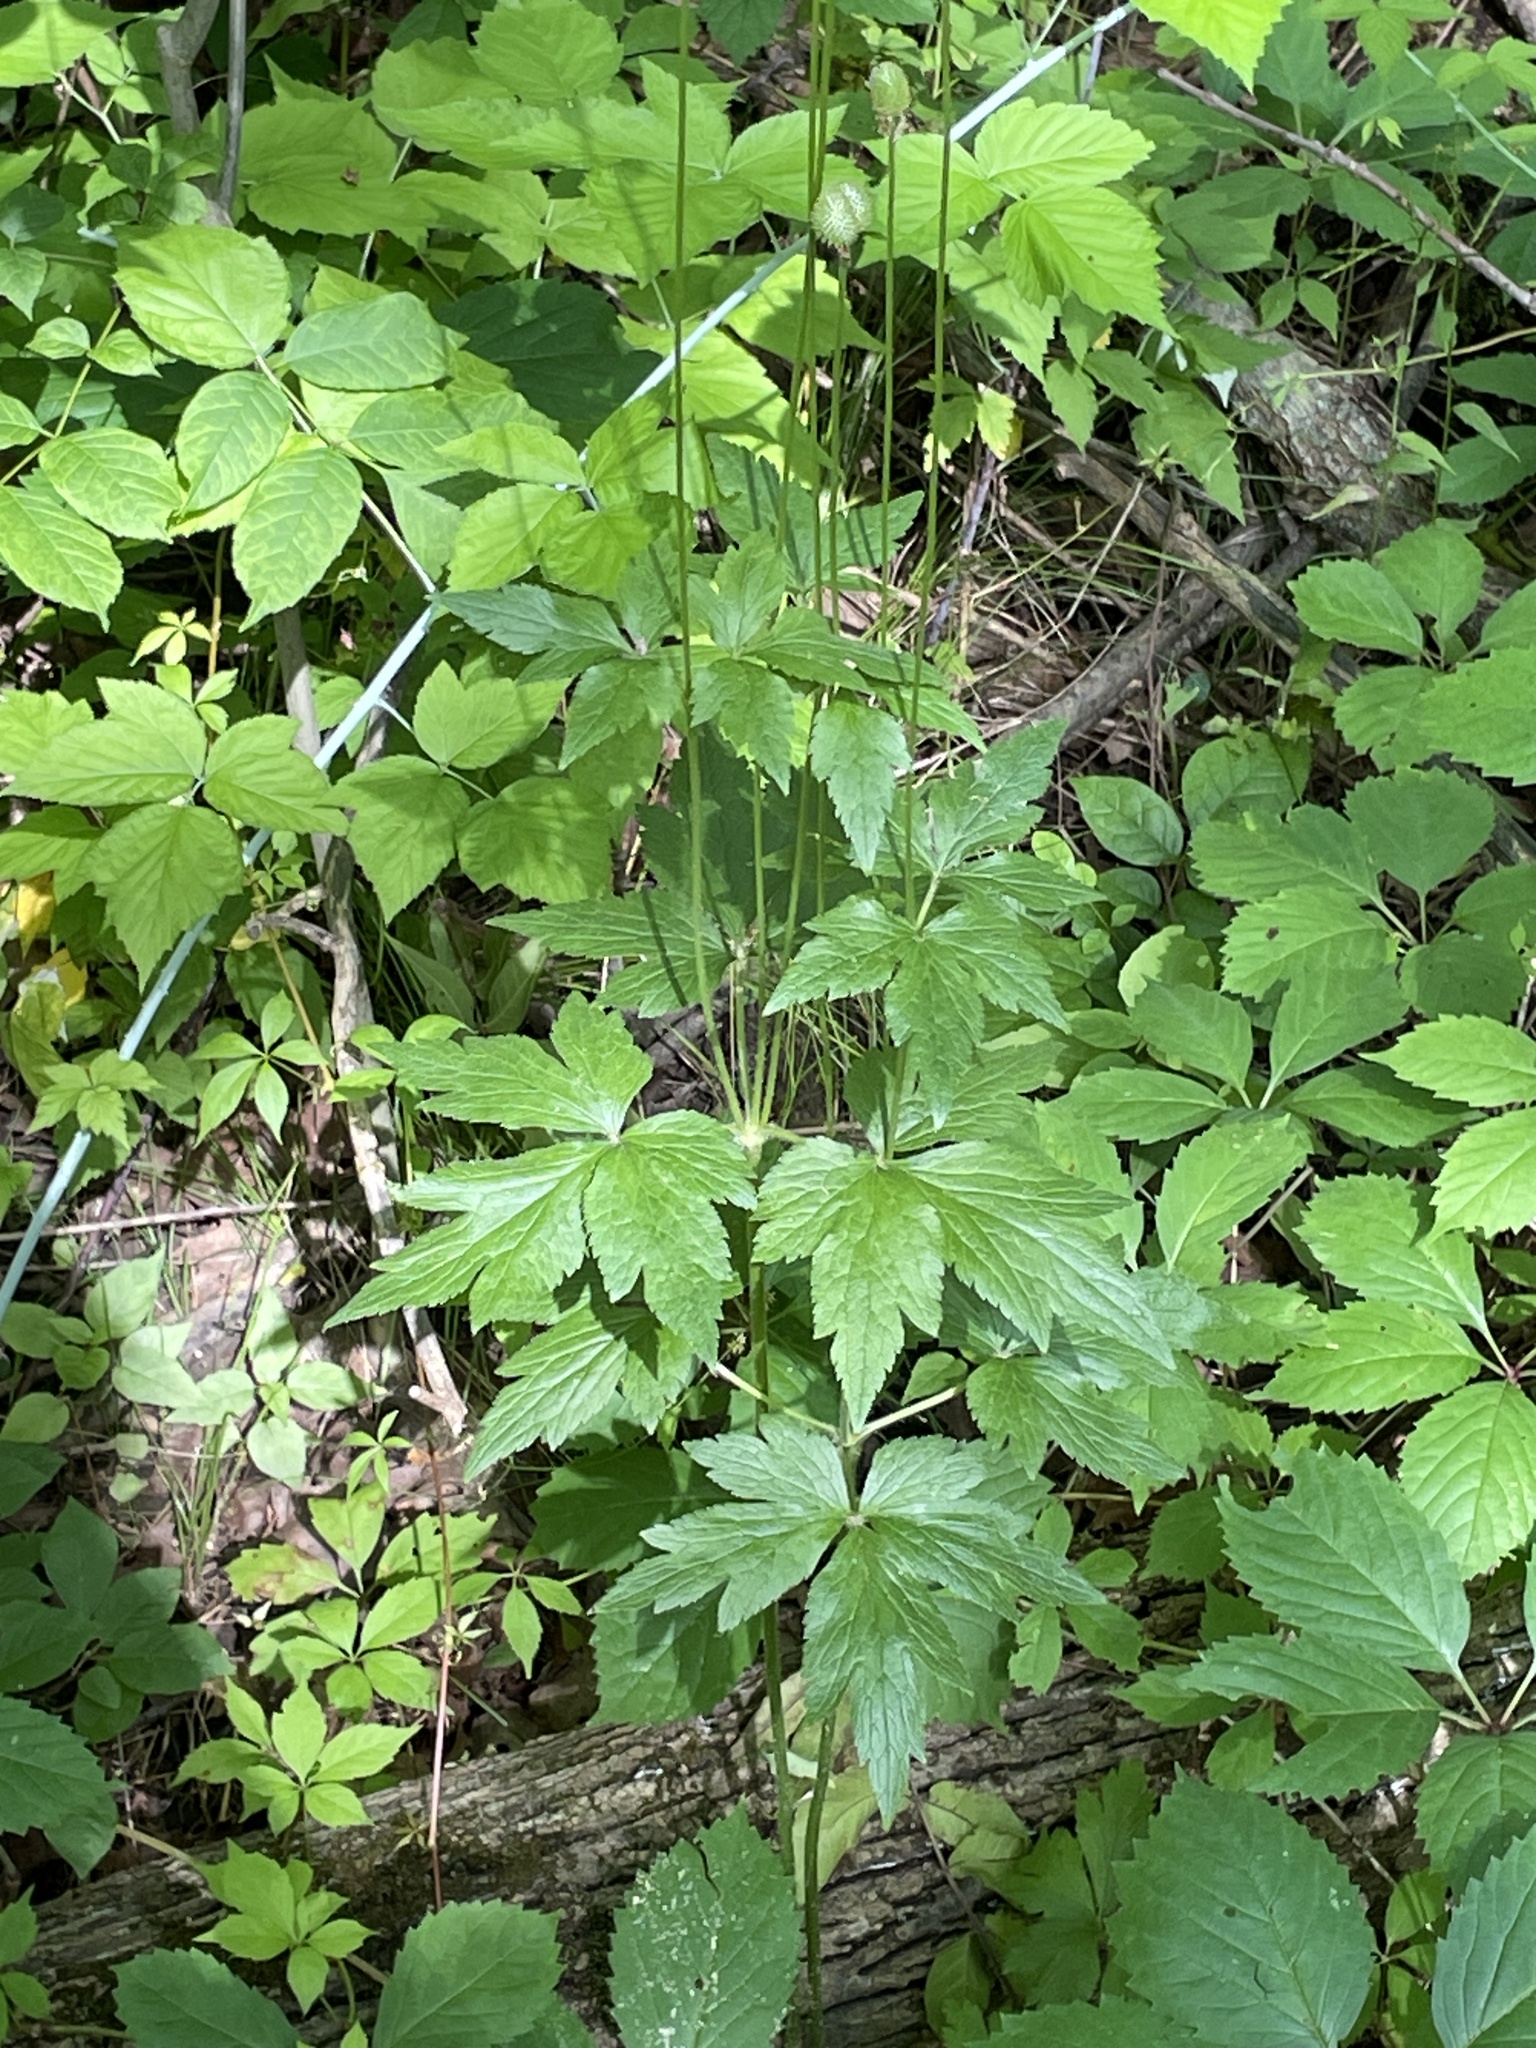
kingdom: Plantae
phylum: Tracheophyta
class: Magnoliopsida
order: Ranunculales
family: Ranunculaceae
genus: Anemone
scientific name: Anemone virginiana
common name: Tall anemone
